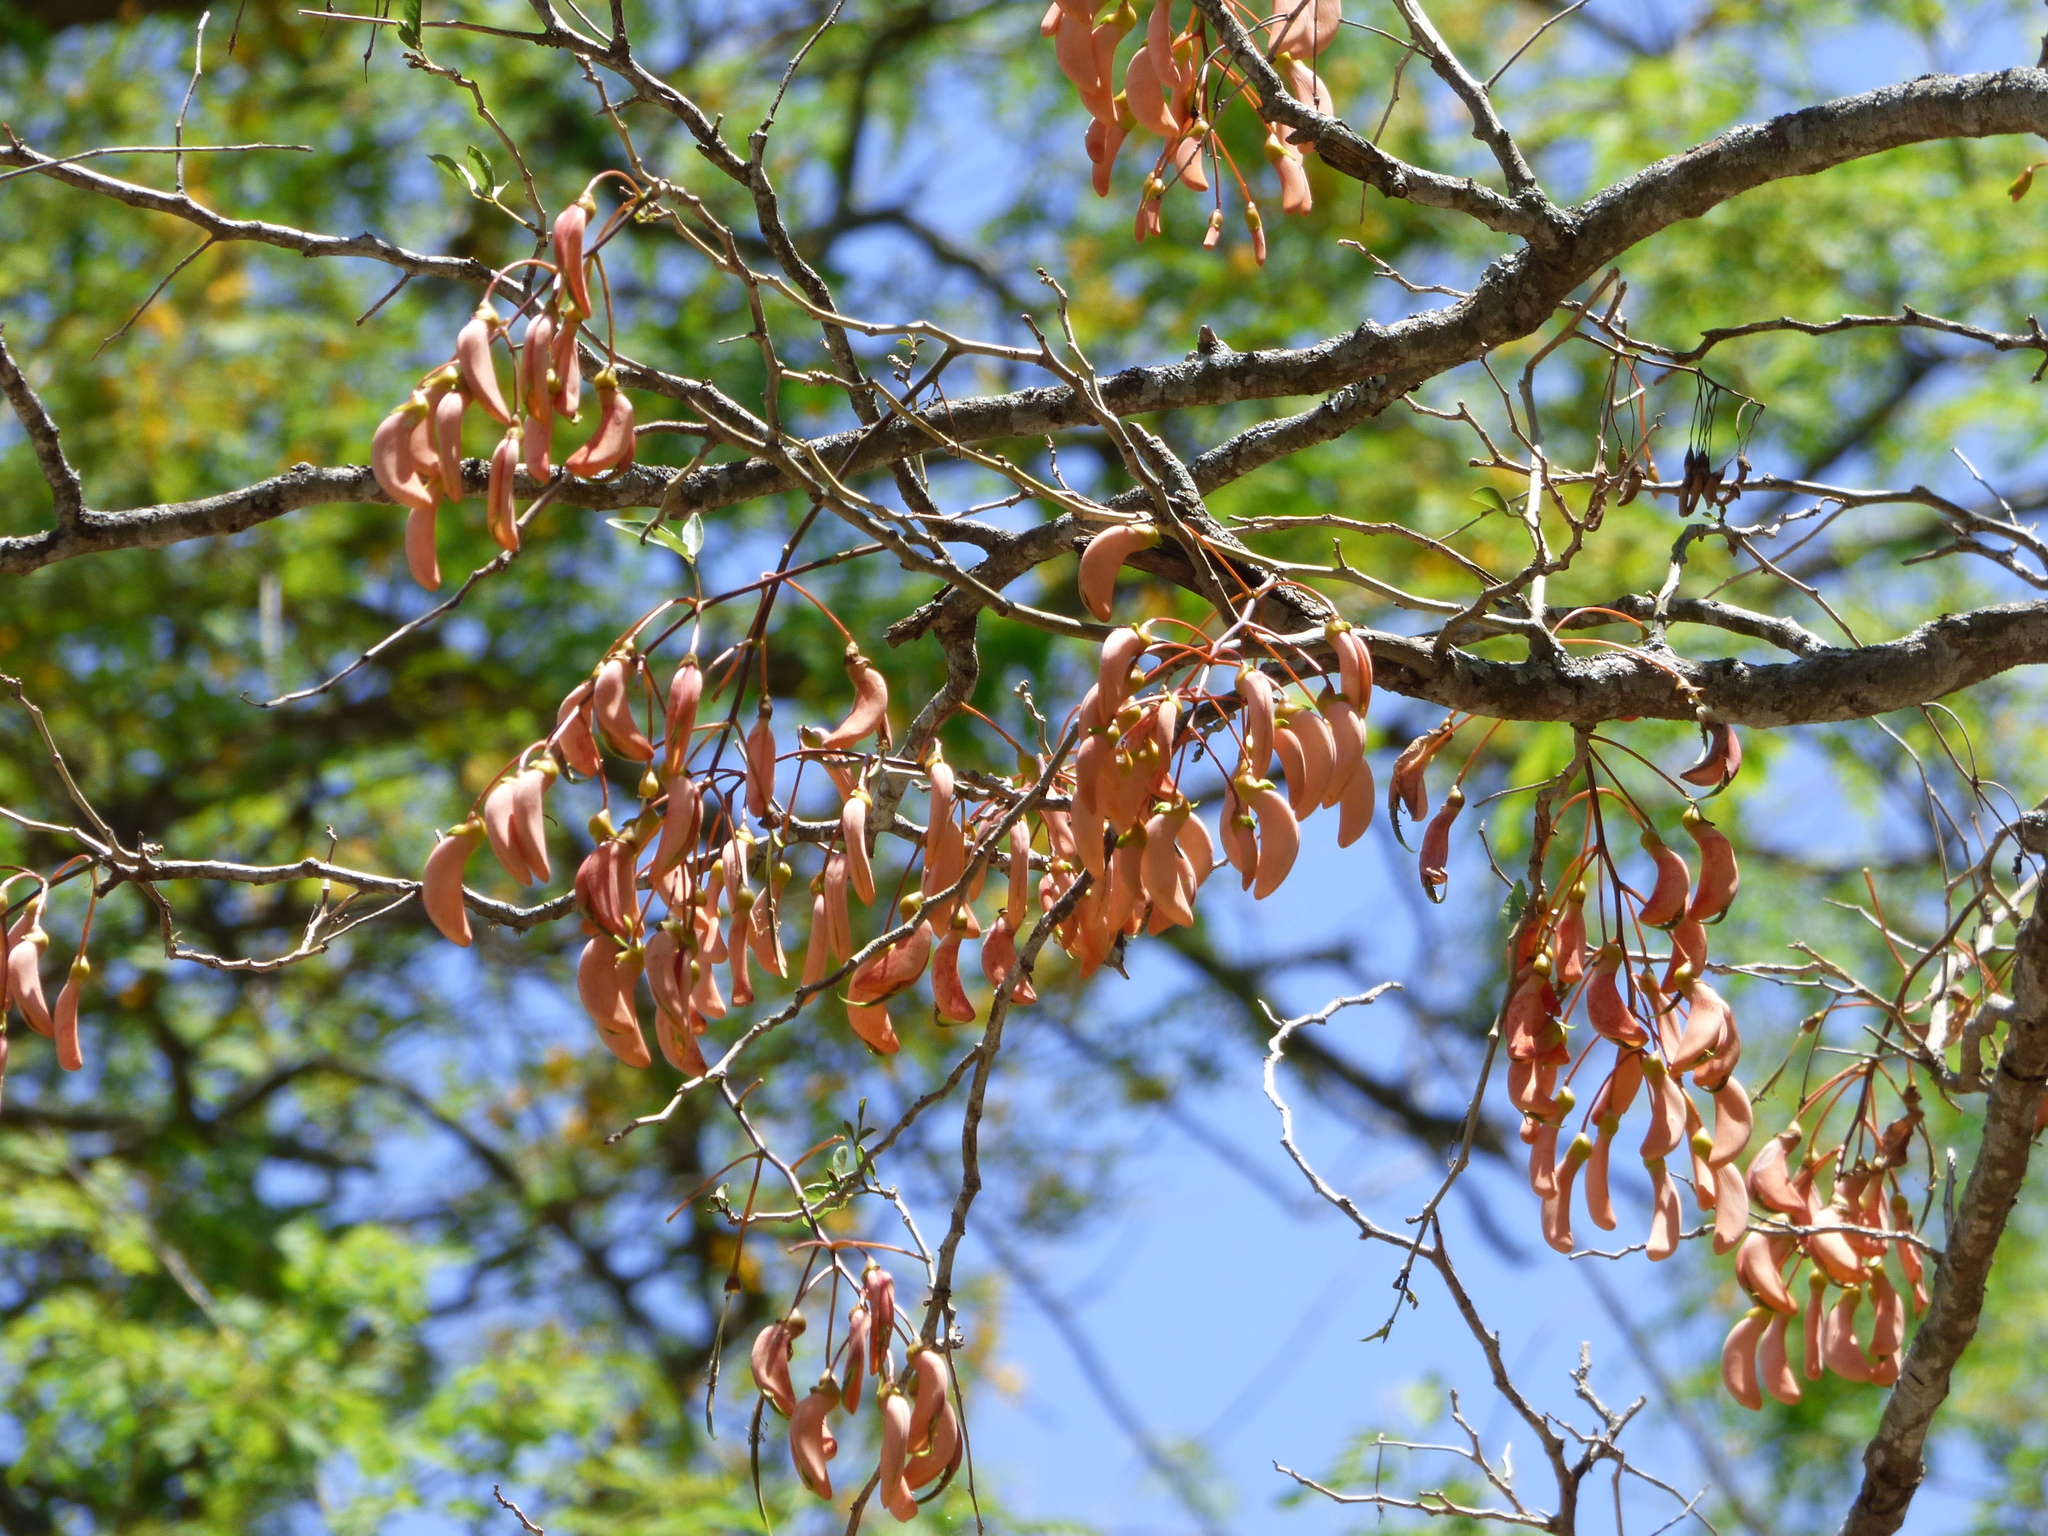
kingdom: Plantae
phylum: Tracheophyta
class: Magnoliopsida
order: Fabales
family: Fabaceae
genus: Erythrina
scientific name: Erythrina mulungu
